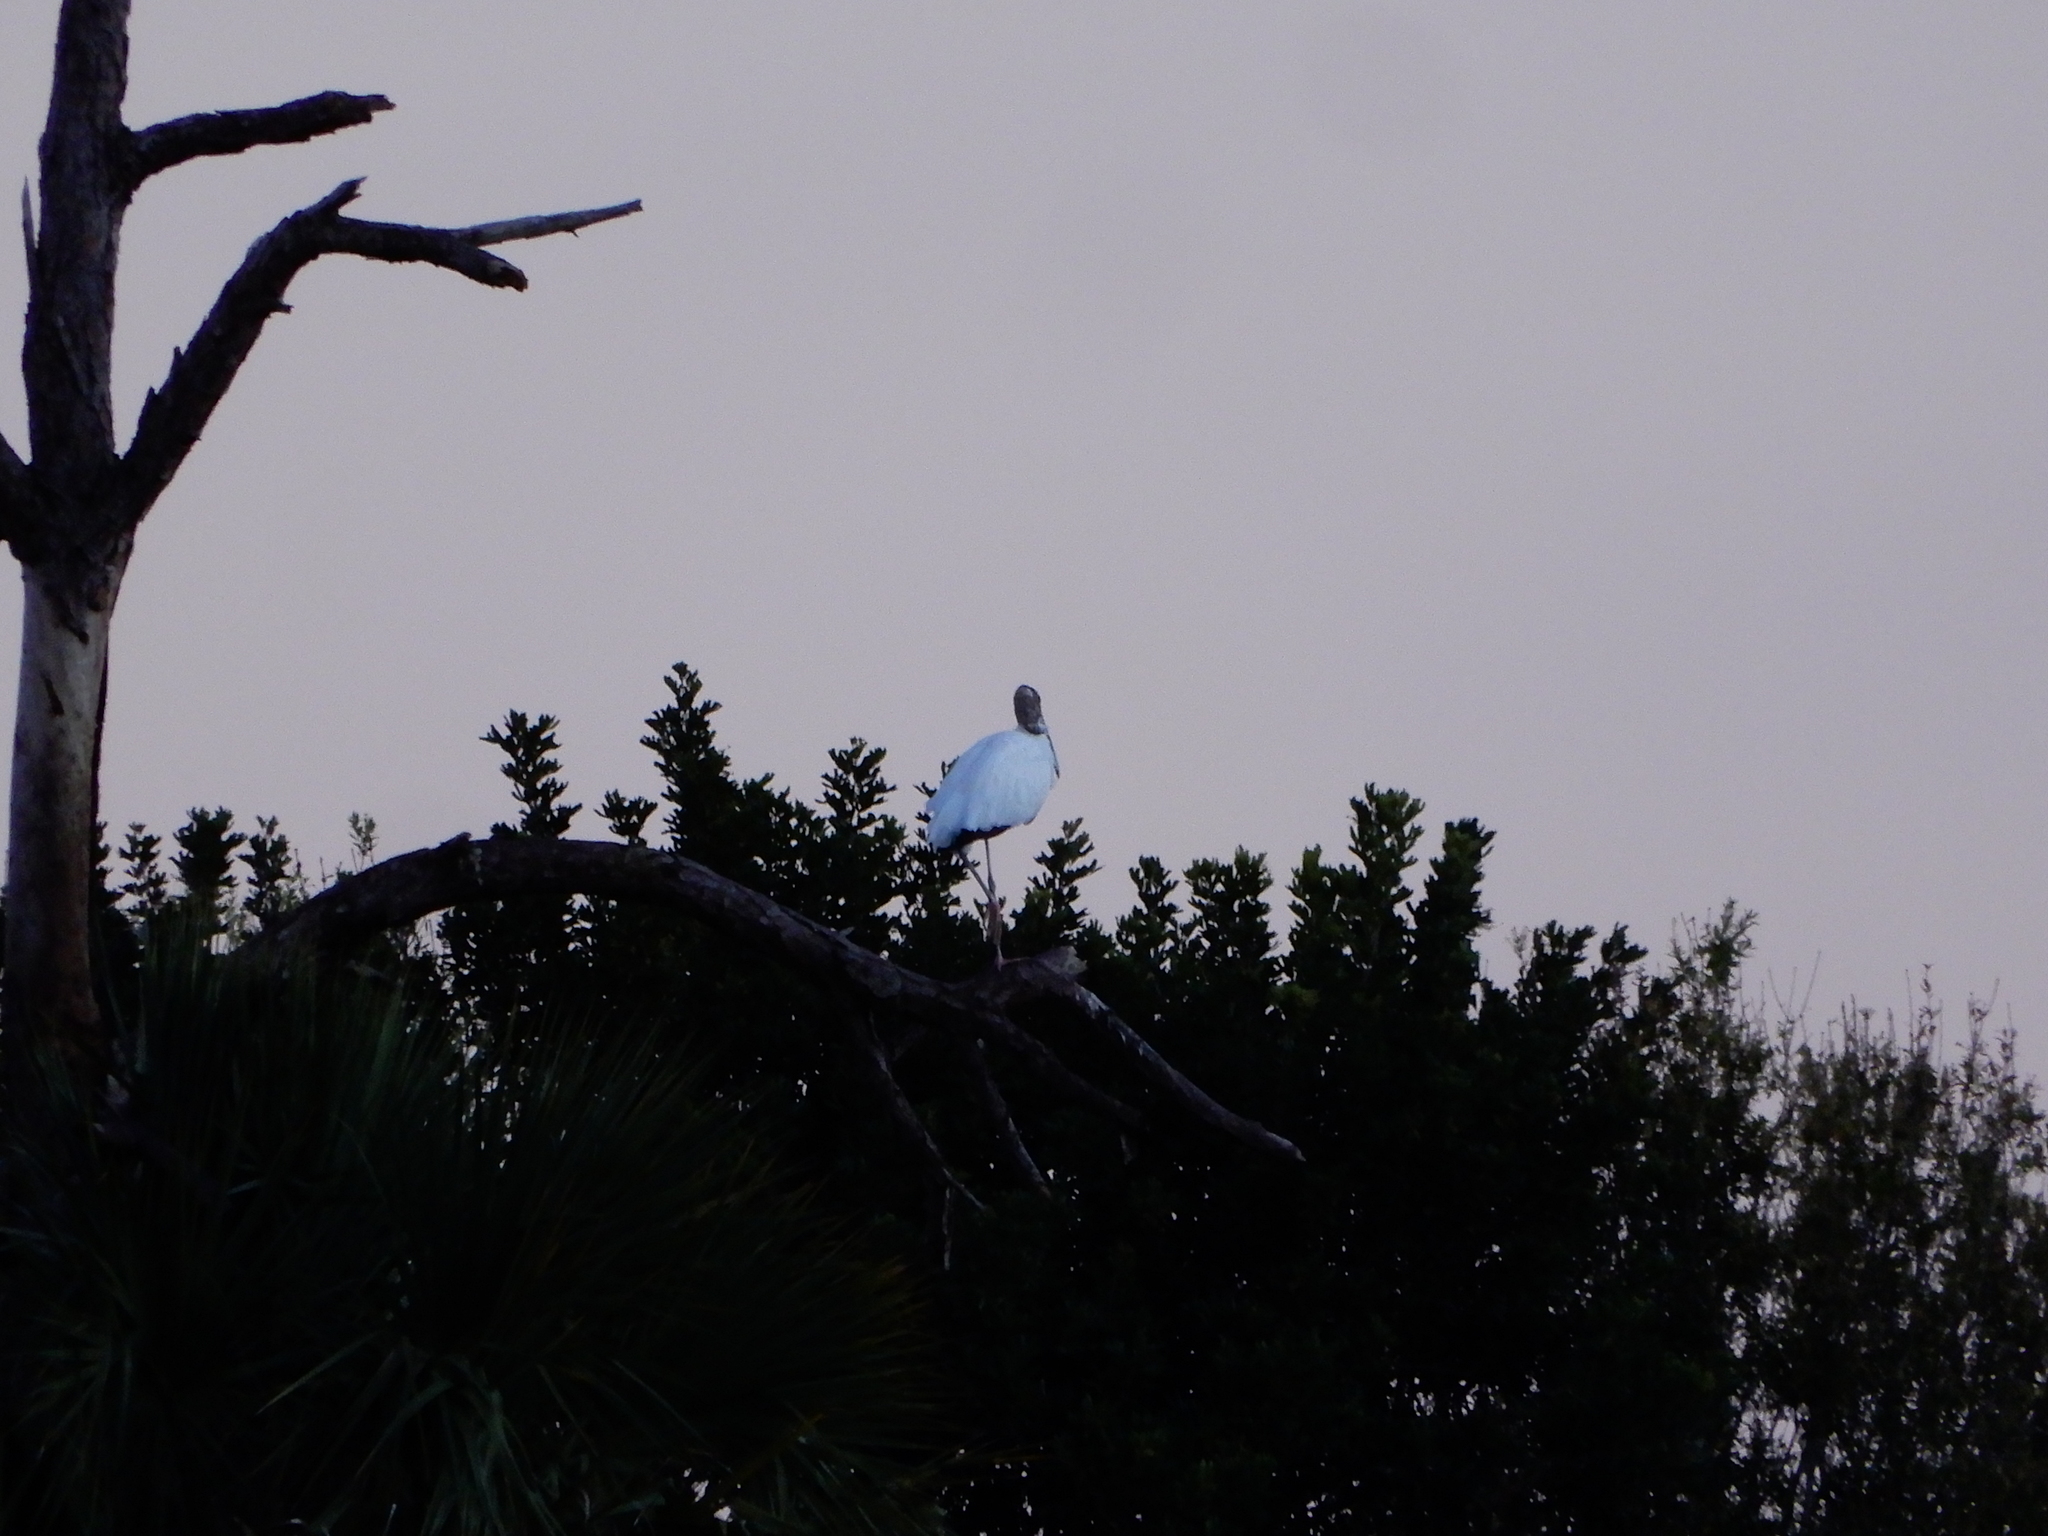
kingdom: Animalia
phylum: Chordata
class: Aves
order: Ciconiiformes
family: Ciconiidae
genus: Mycteria
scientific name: Mycteria americana
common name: Wood stork
